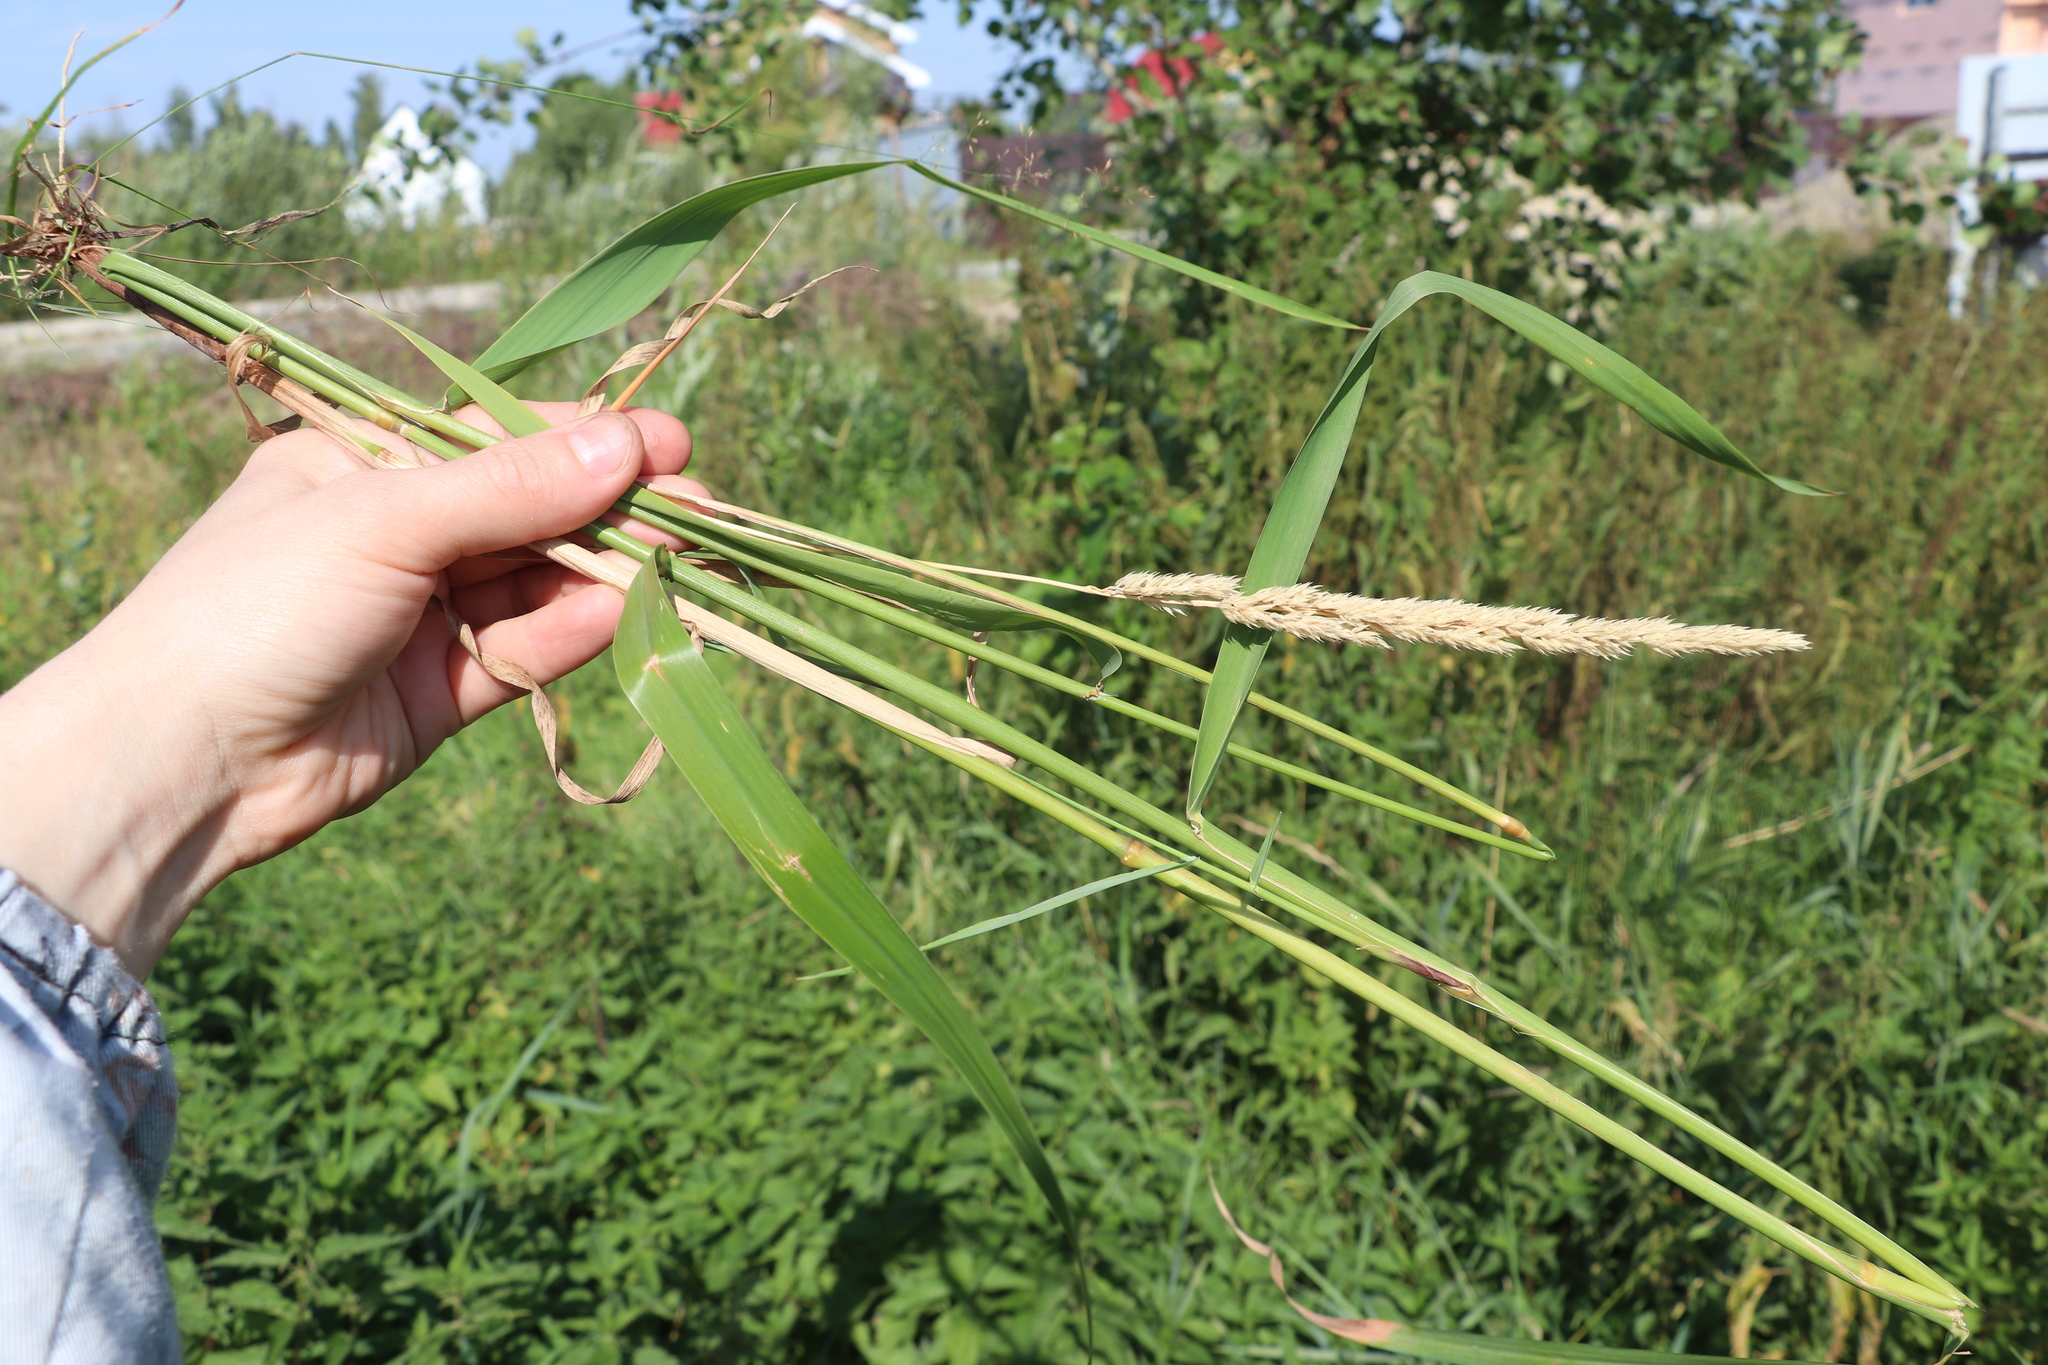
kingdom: Plantae
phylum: Tracheophyta
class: Liliopsida
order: Poales
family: Poaceae
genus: Phalaris
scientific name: Phalaris arundinacea
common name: Reed canary-grass
